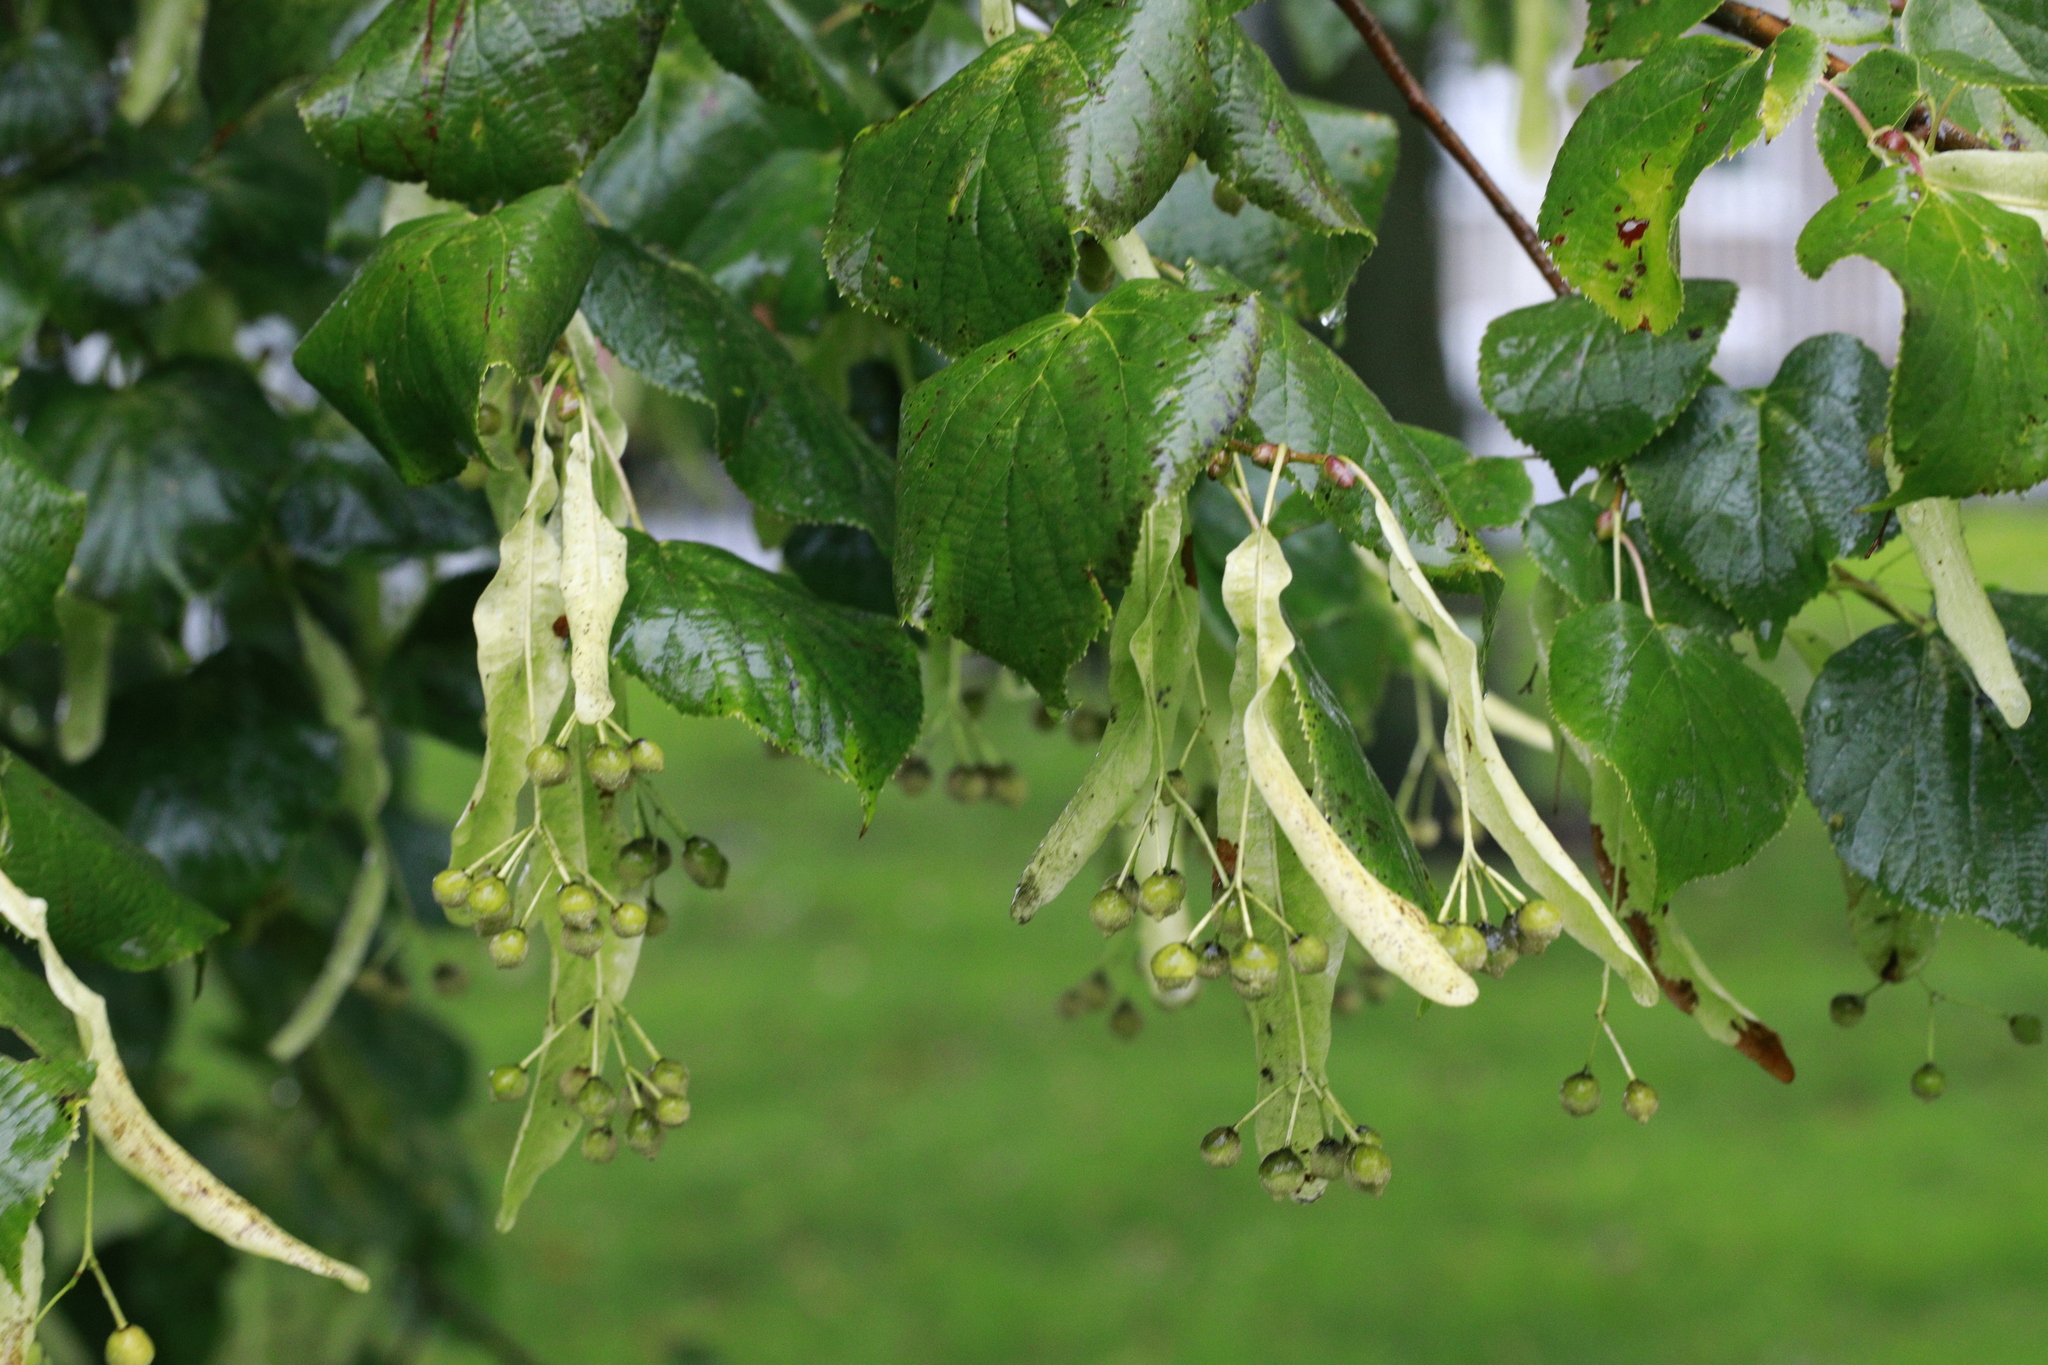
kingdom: Plantae
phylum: Tracheophyta
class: Magnoliopsida
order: Malvales
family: Malvaceae
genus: Tilia
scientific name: Tilia europaea
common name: European linden
